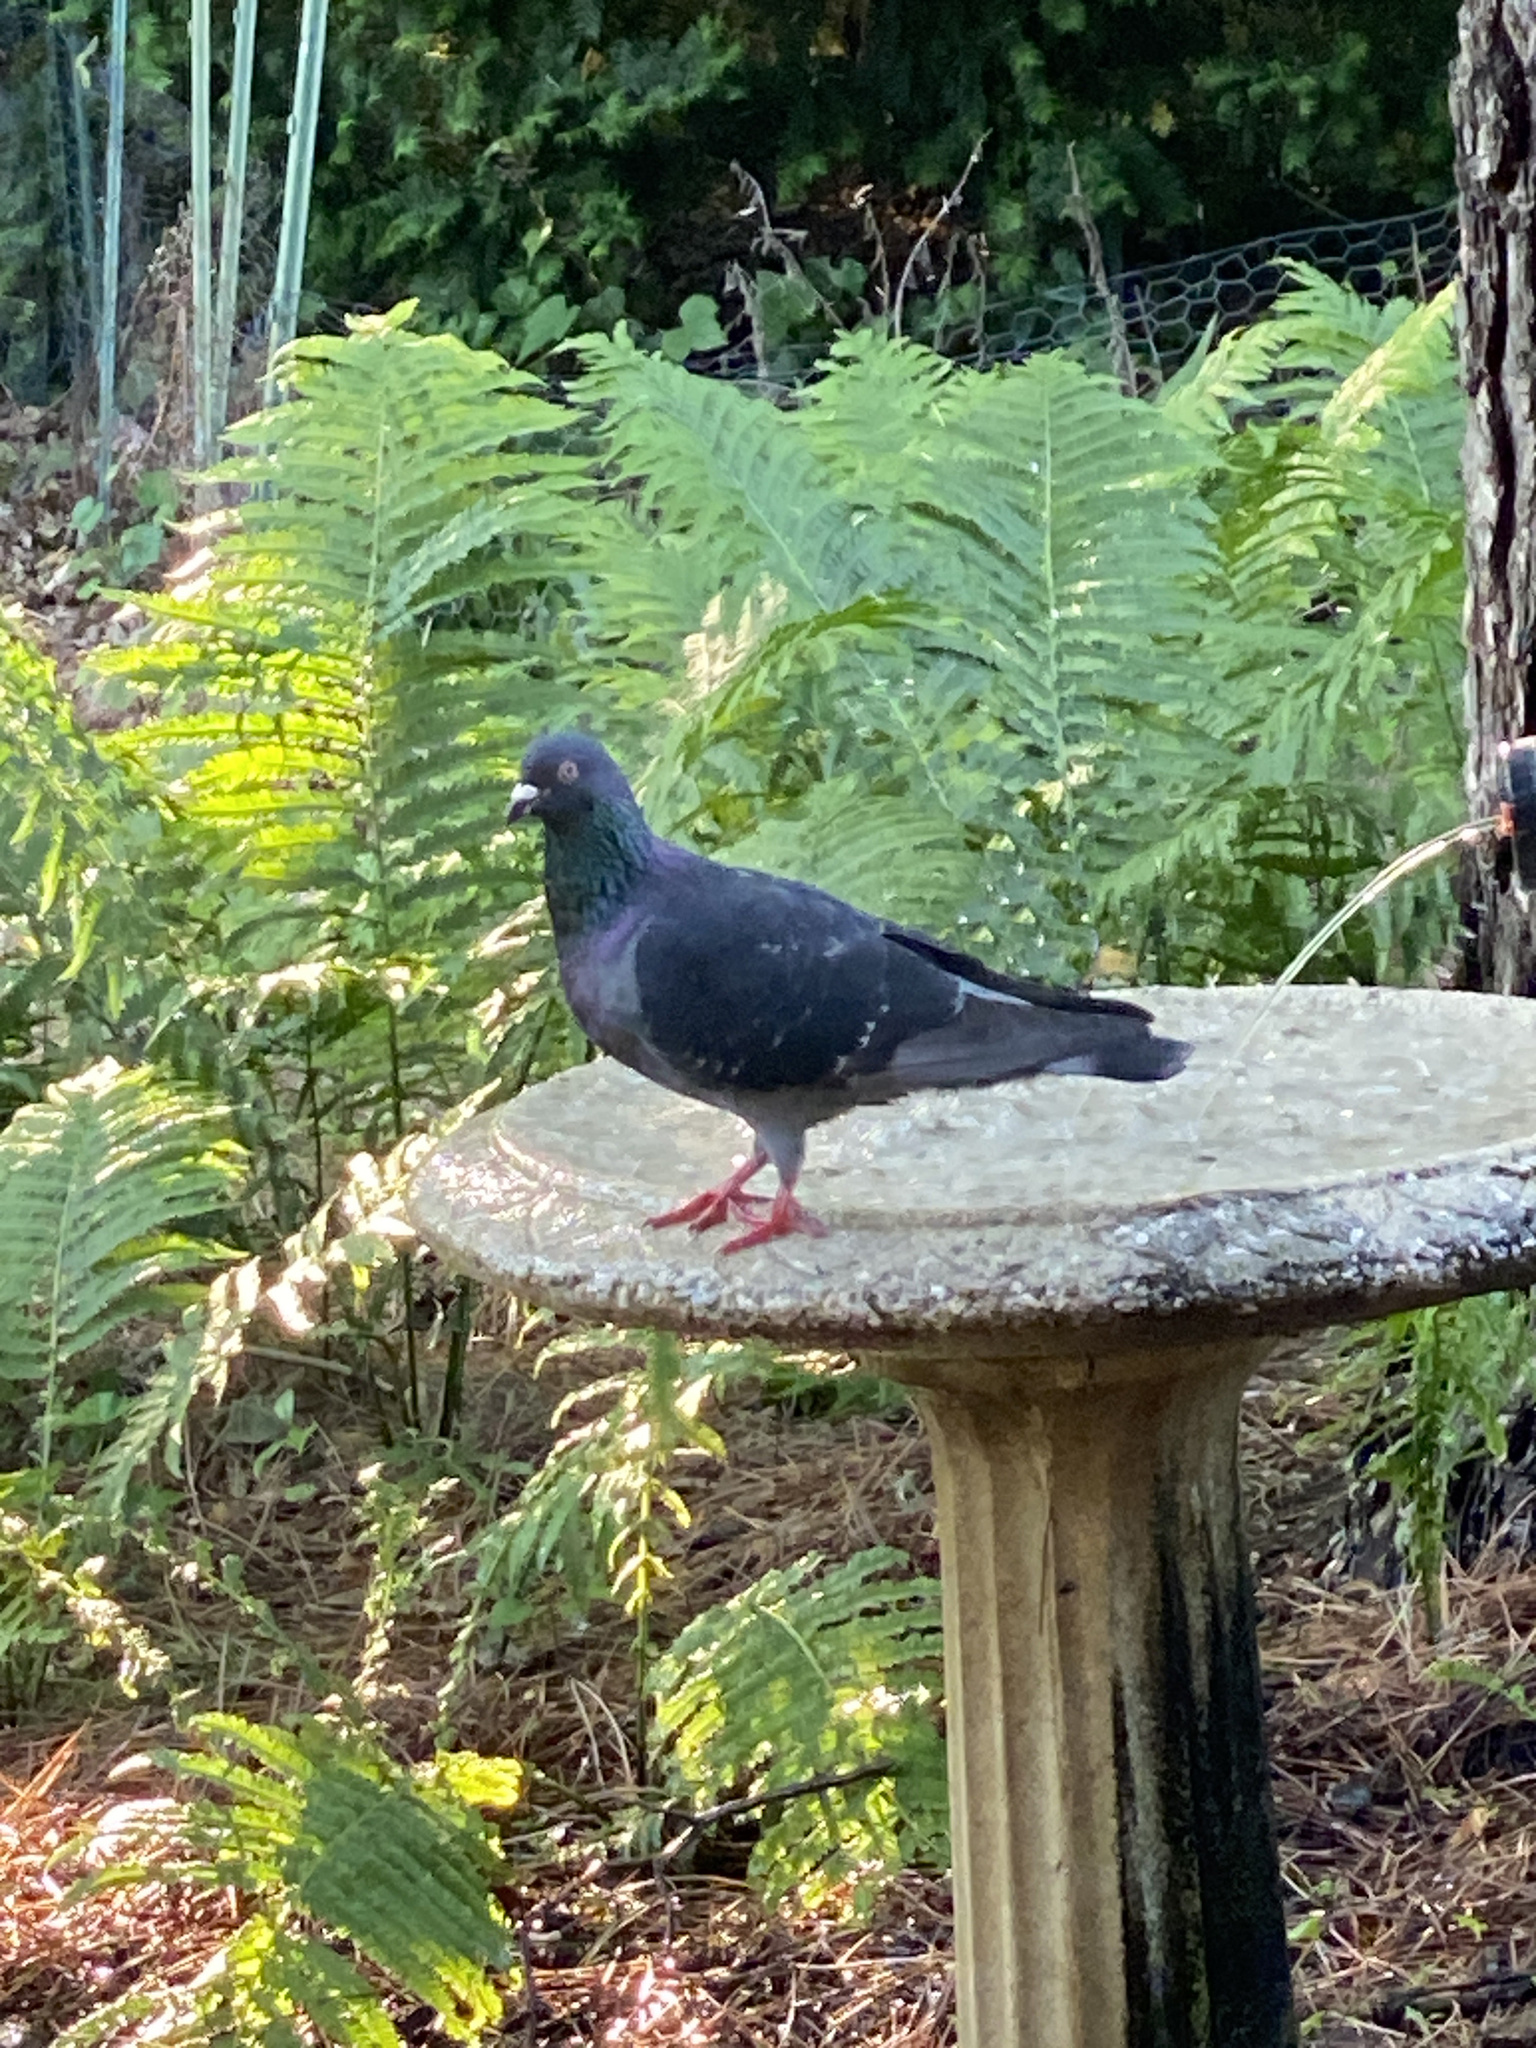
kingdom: Animalia
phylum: Chordata
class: Aves
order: Columbiformes
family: Columbidae
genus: Columba
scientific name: Columba livia
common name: Rock pigeon
